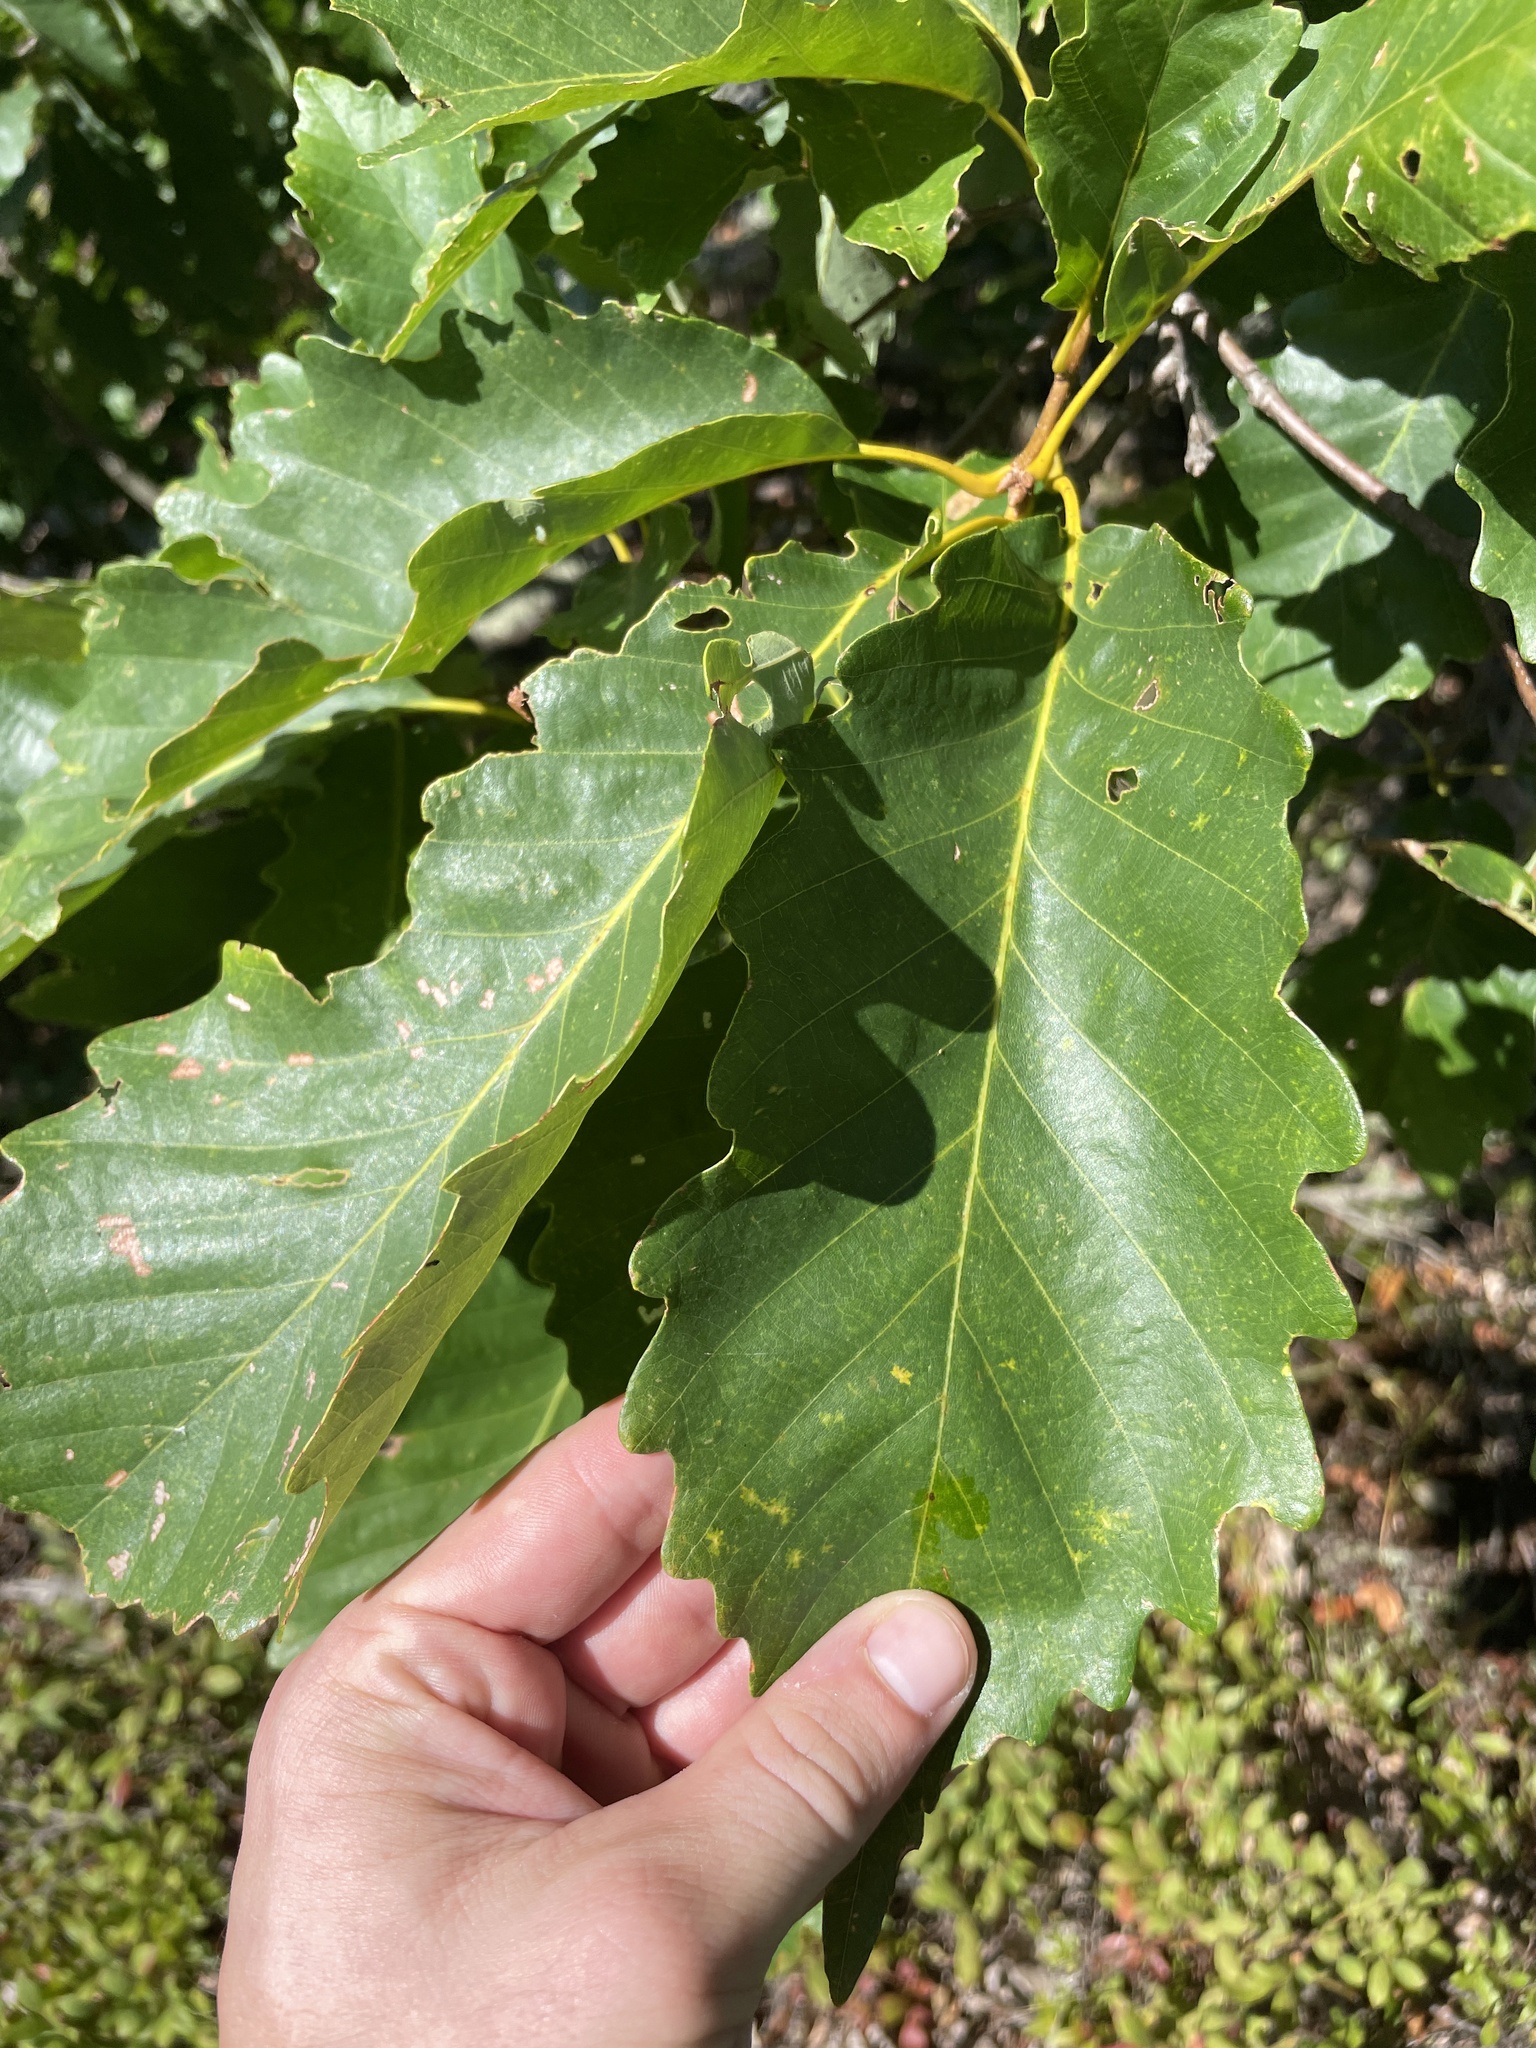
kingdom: Plantae
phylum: Tracheophyta
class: Magnoliopsida
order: Fagales
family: Fagaceae
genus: Quercus
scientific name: Quercus montana
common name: Chestnut oak
